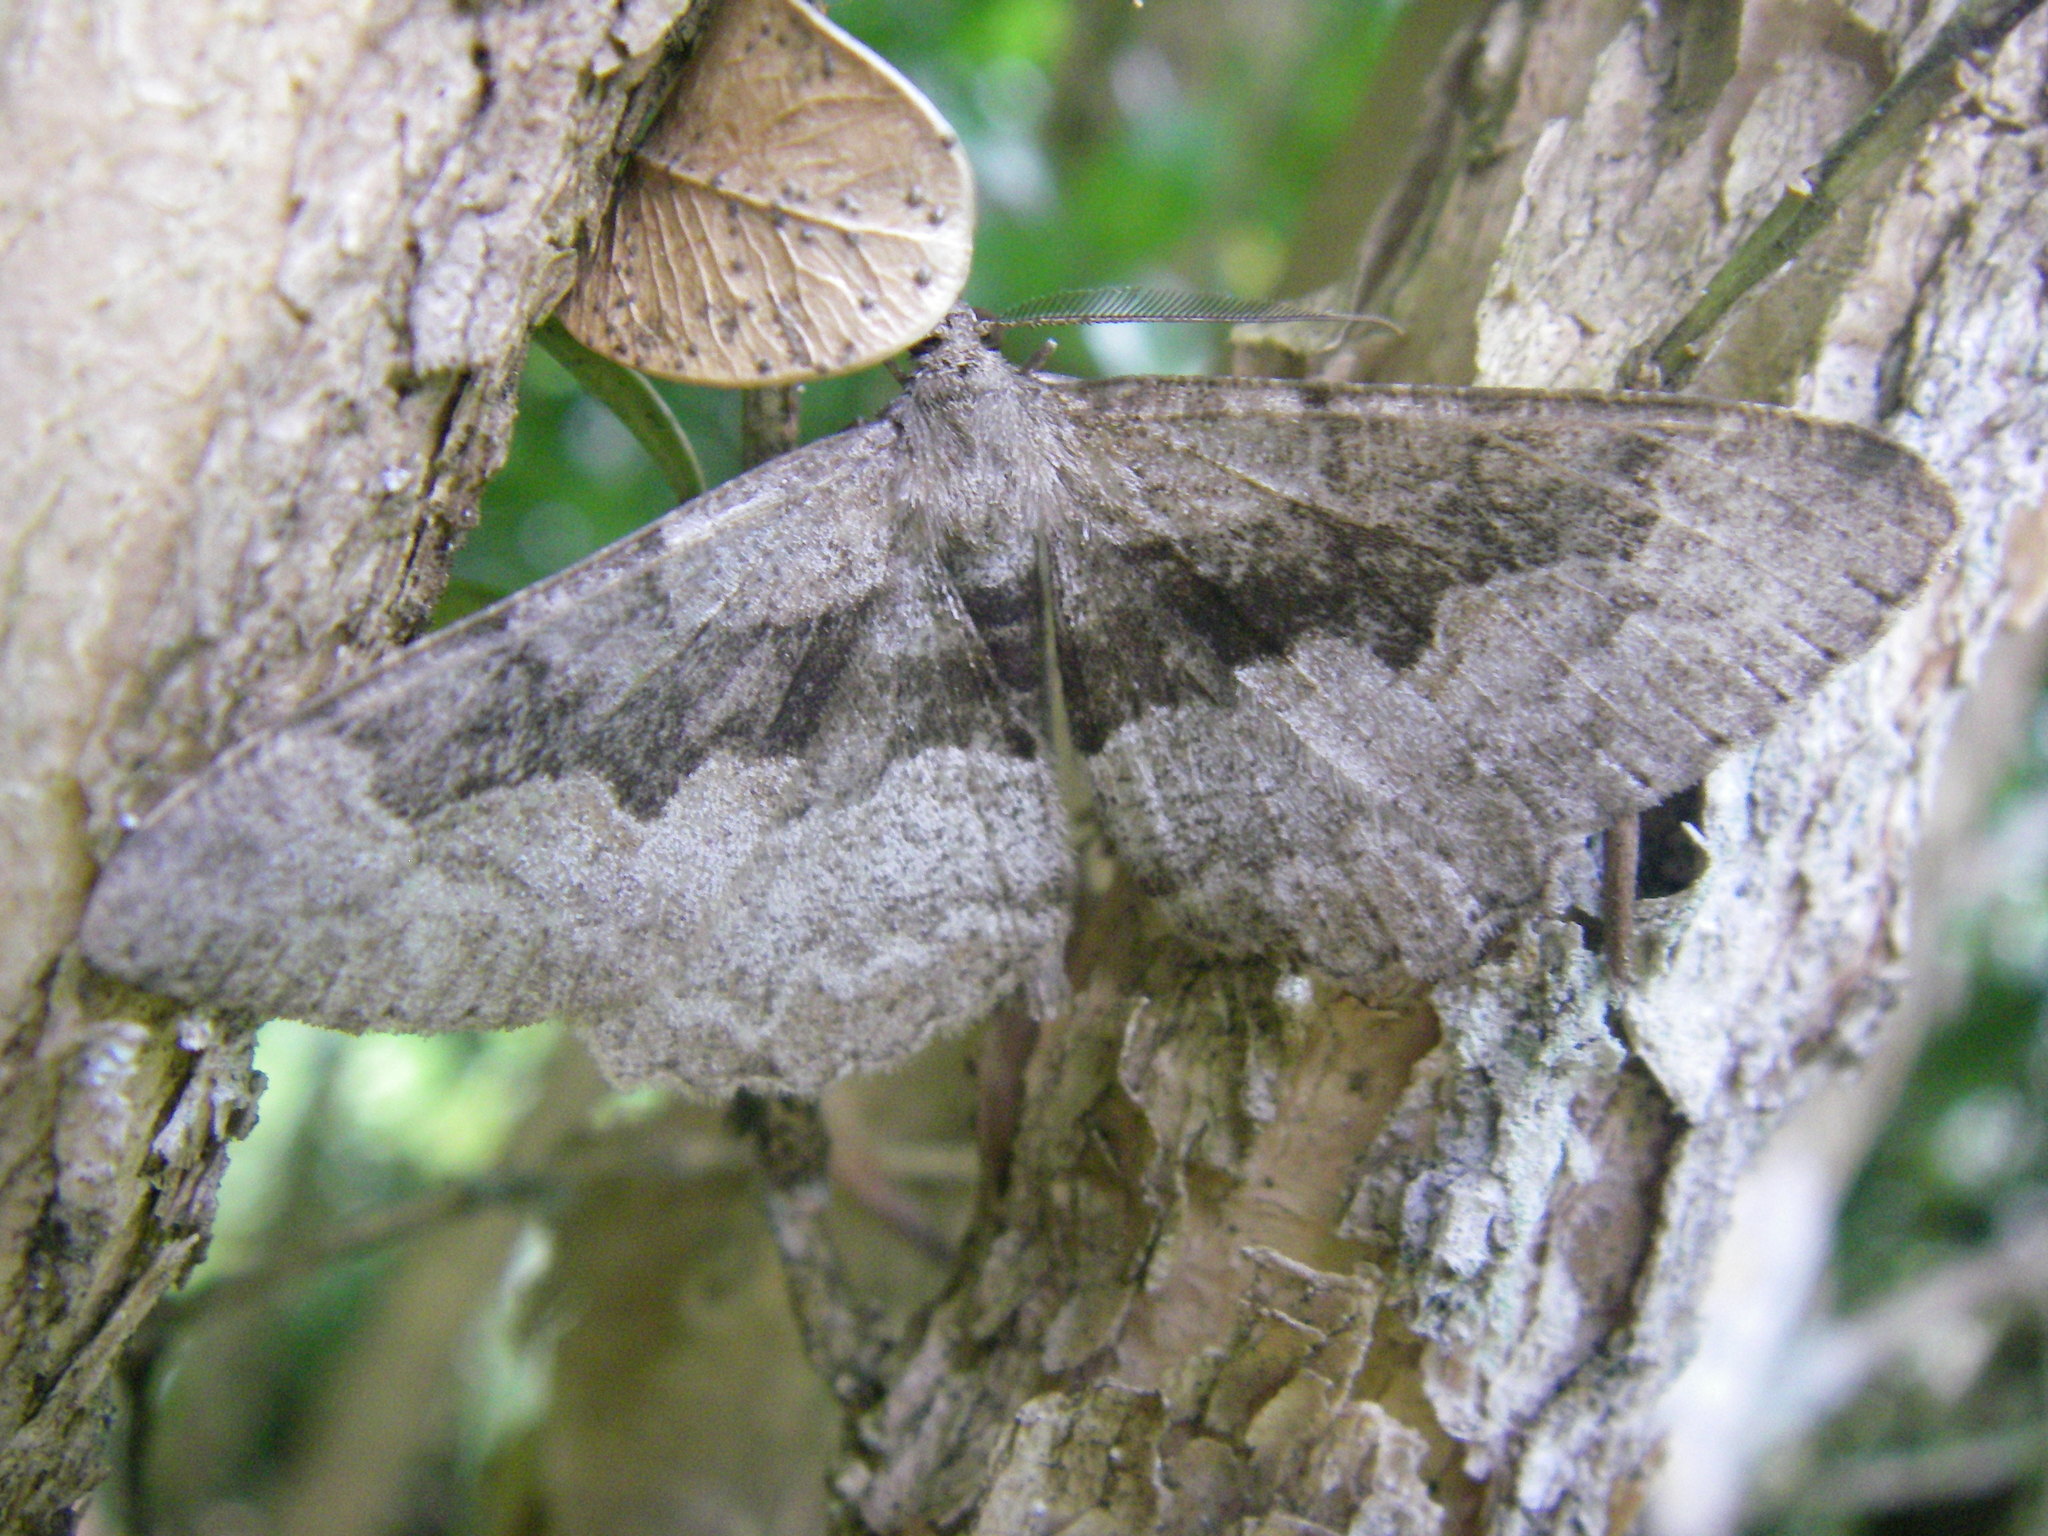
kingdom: Animalia
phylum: Arthropoda
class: Insecta
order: Lepidoptera
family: Geometridae
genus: Alcis
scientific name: Alcis repandata
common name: Mottled beauty
